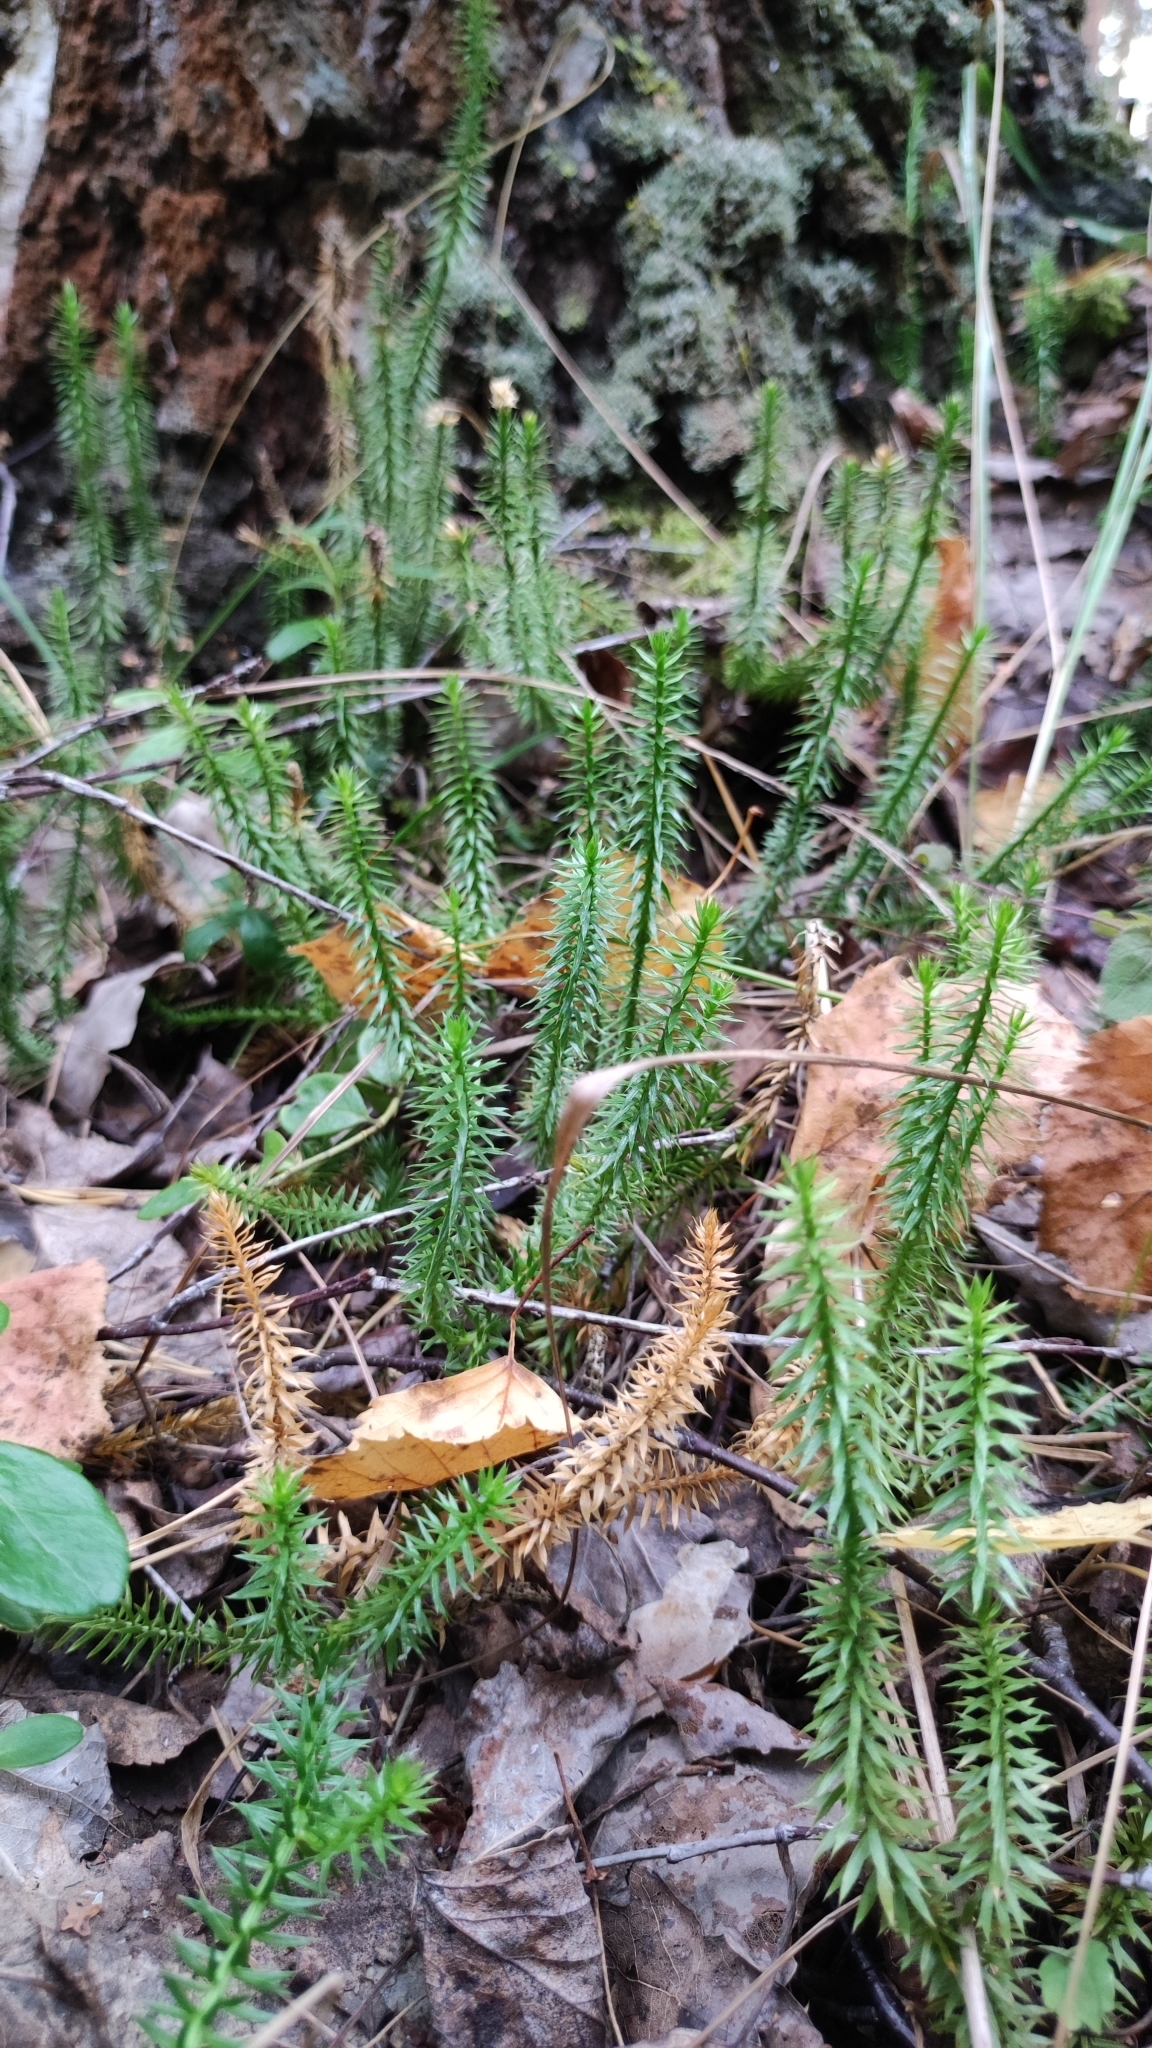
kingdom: Plantae
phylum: Tracheophyta
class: Lycopodiopsida
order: Lycopodiales
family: Lycopodiaceae
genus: Spinulum
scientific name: Spinulum annotinum
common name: Interrupted club-moss
